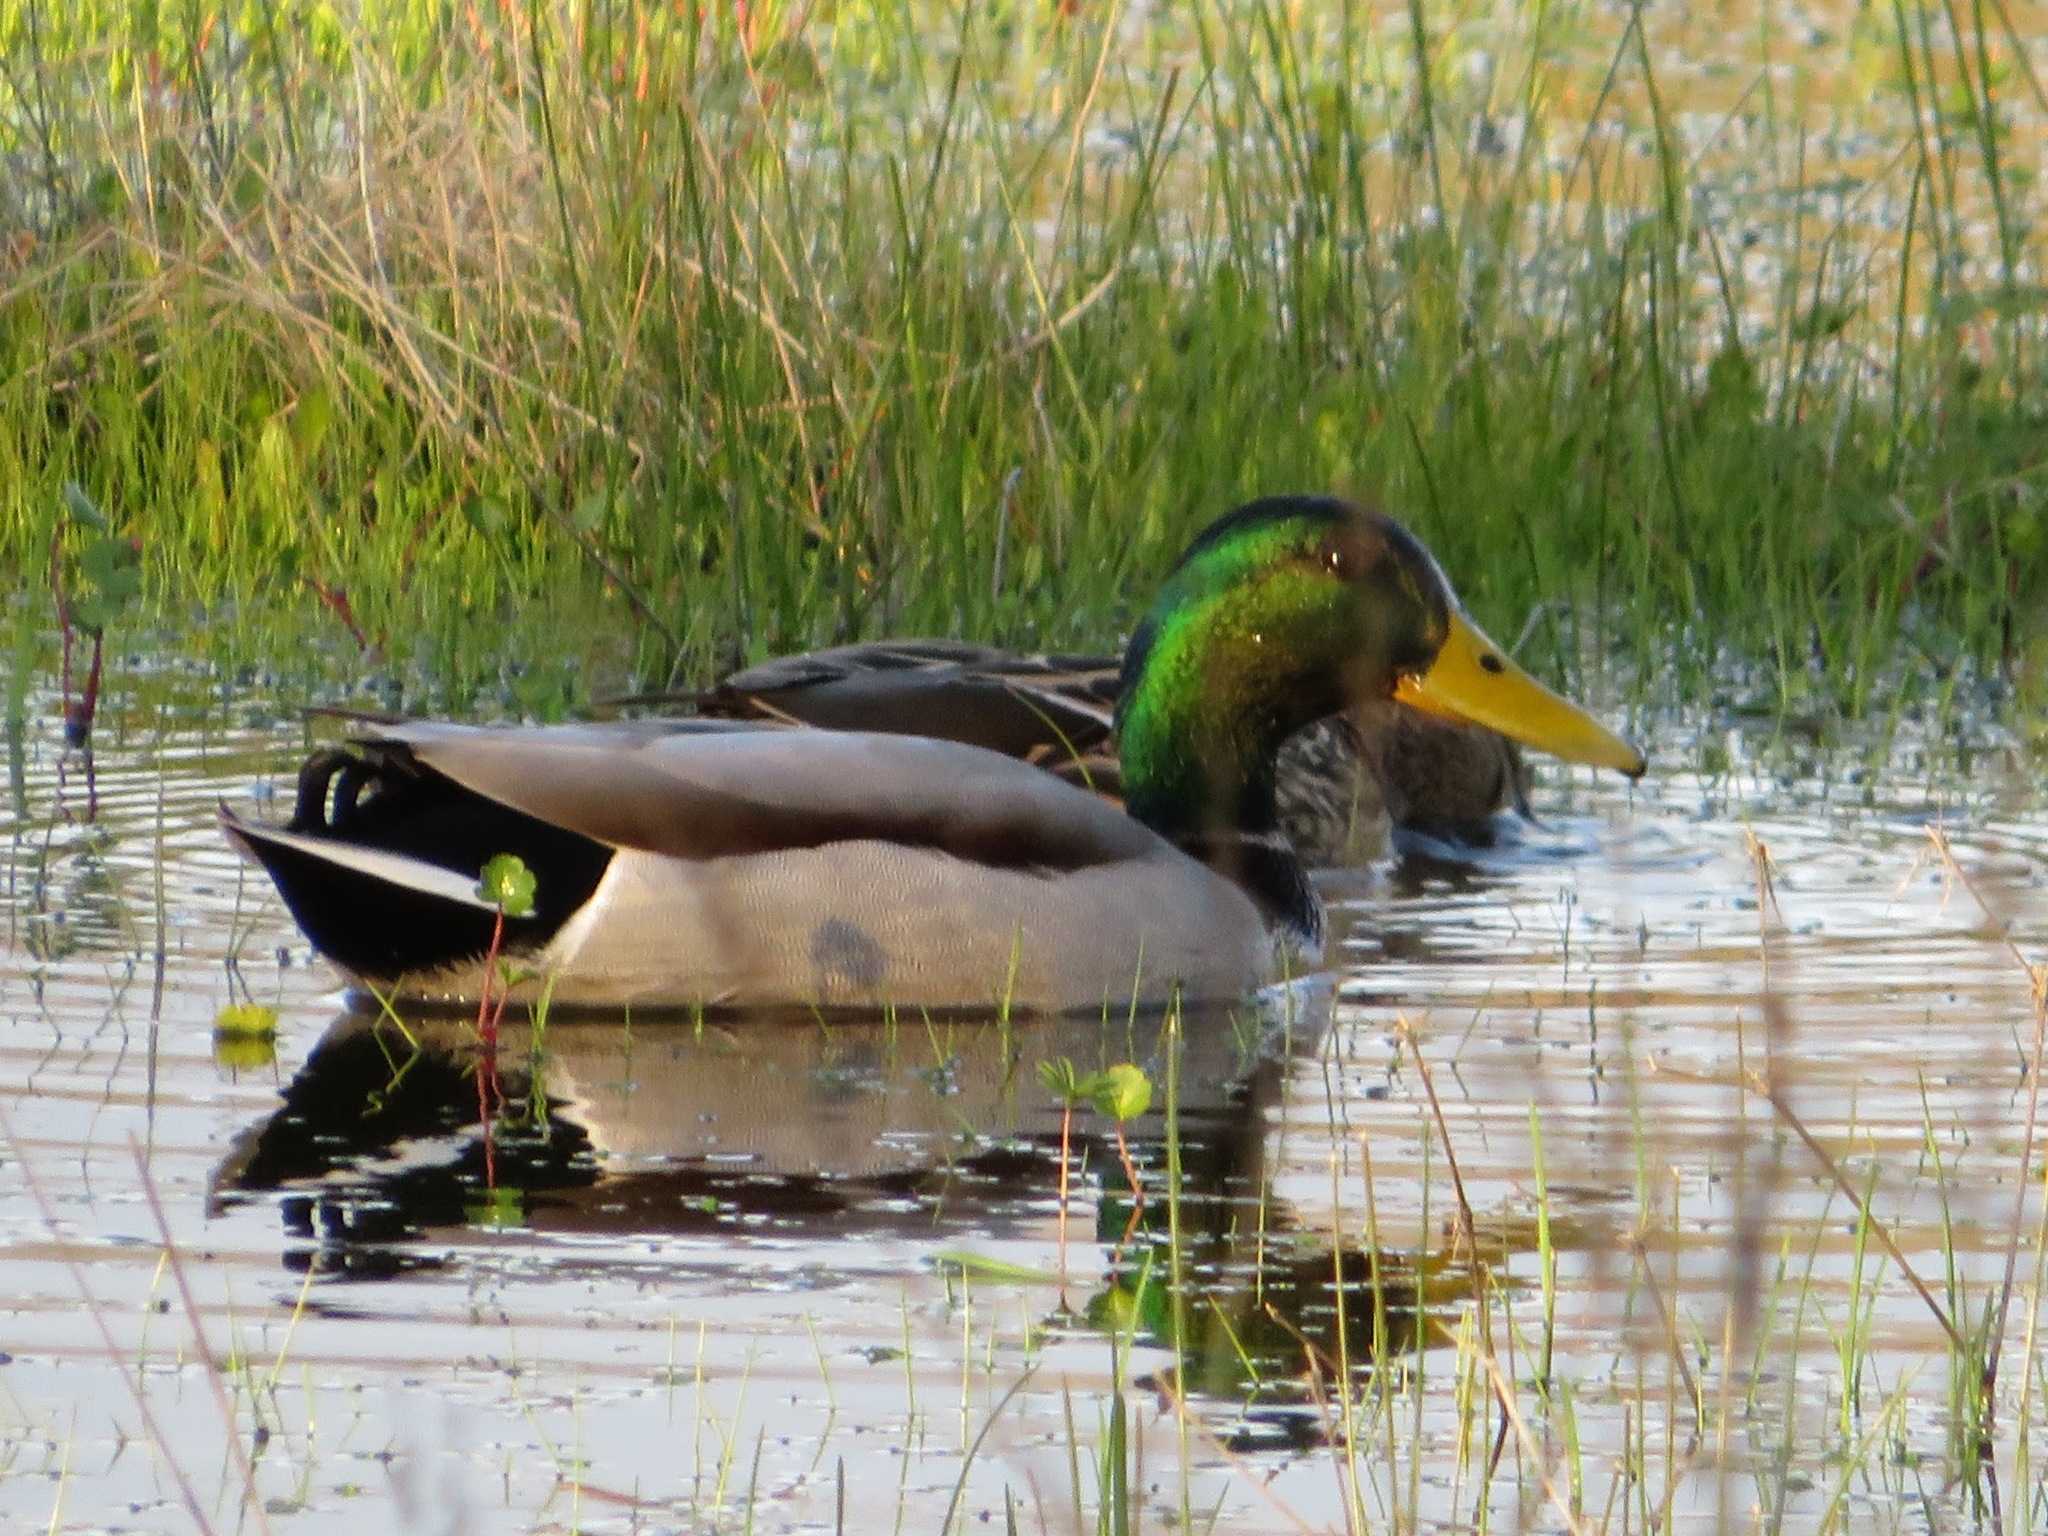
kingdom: Animalia
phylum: Chordata
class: Aves
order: Anseriformes
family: Anatidae
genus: Anas
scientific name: Anas platyrhynchos
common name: Mallard
